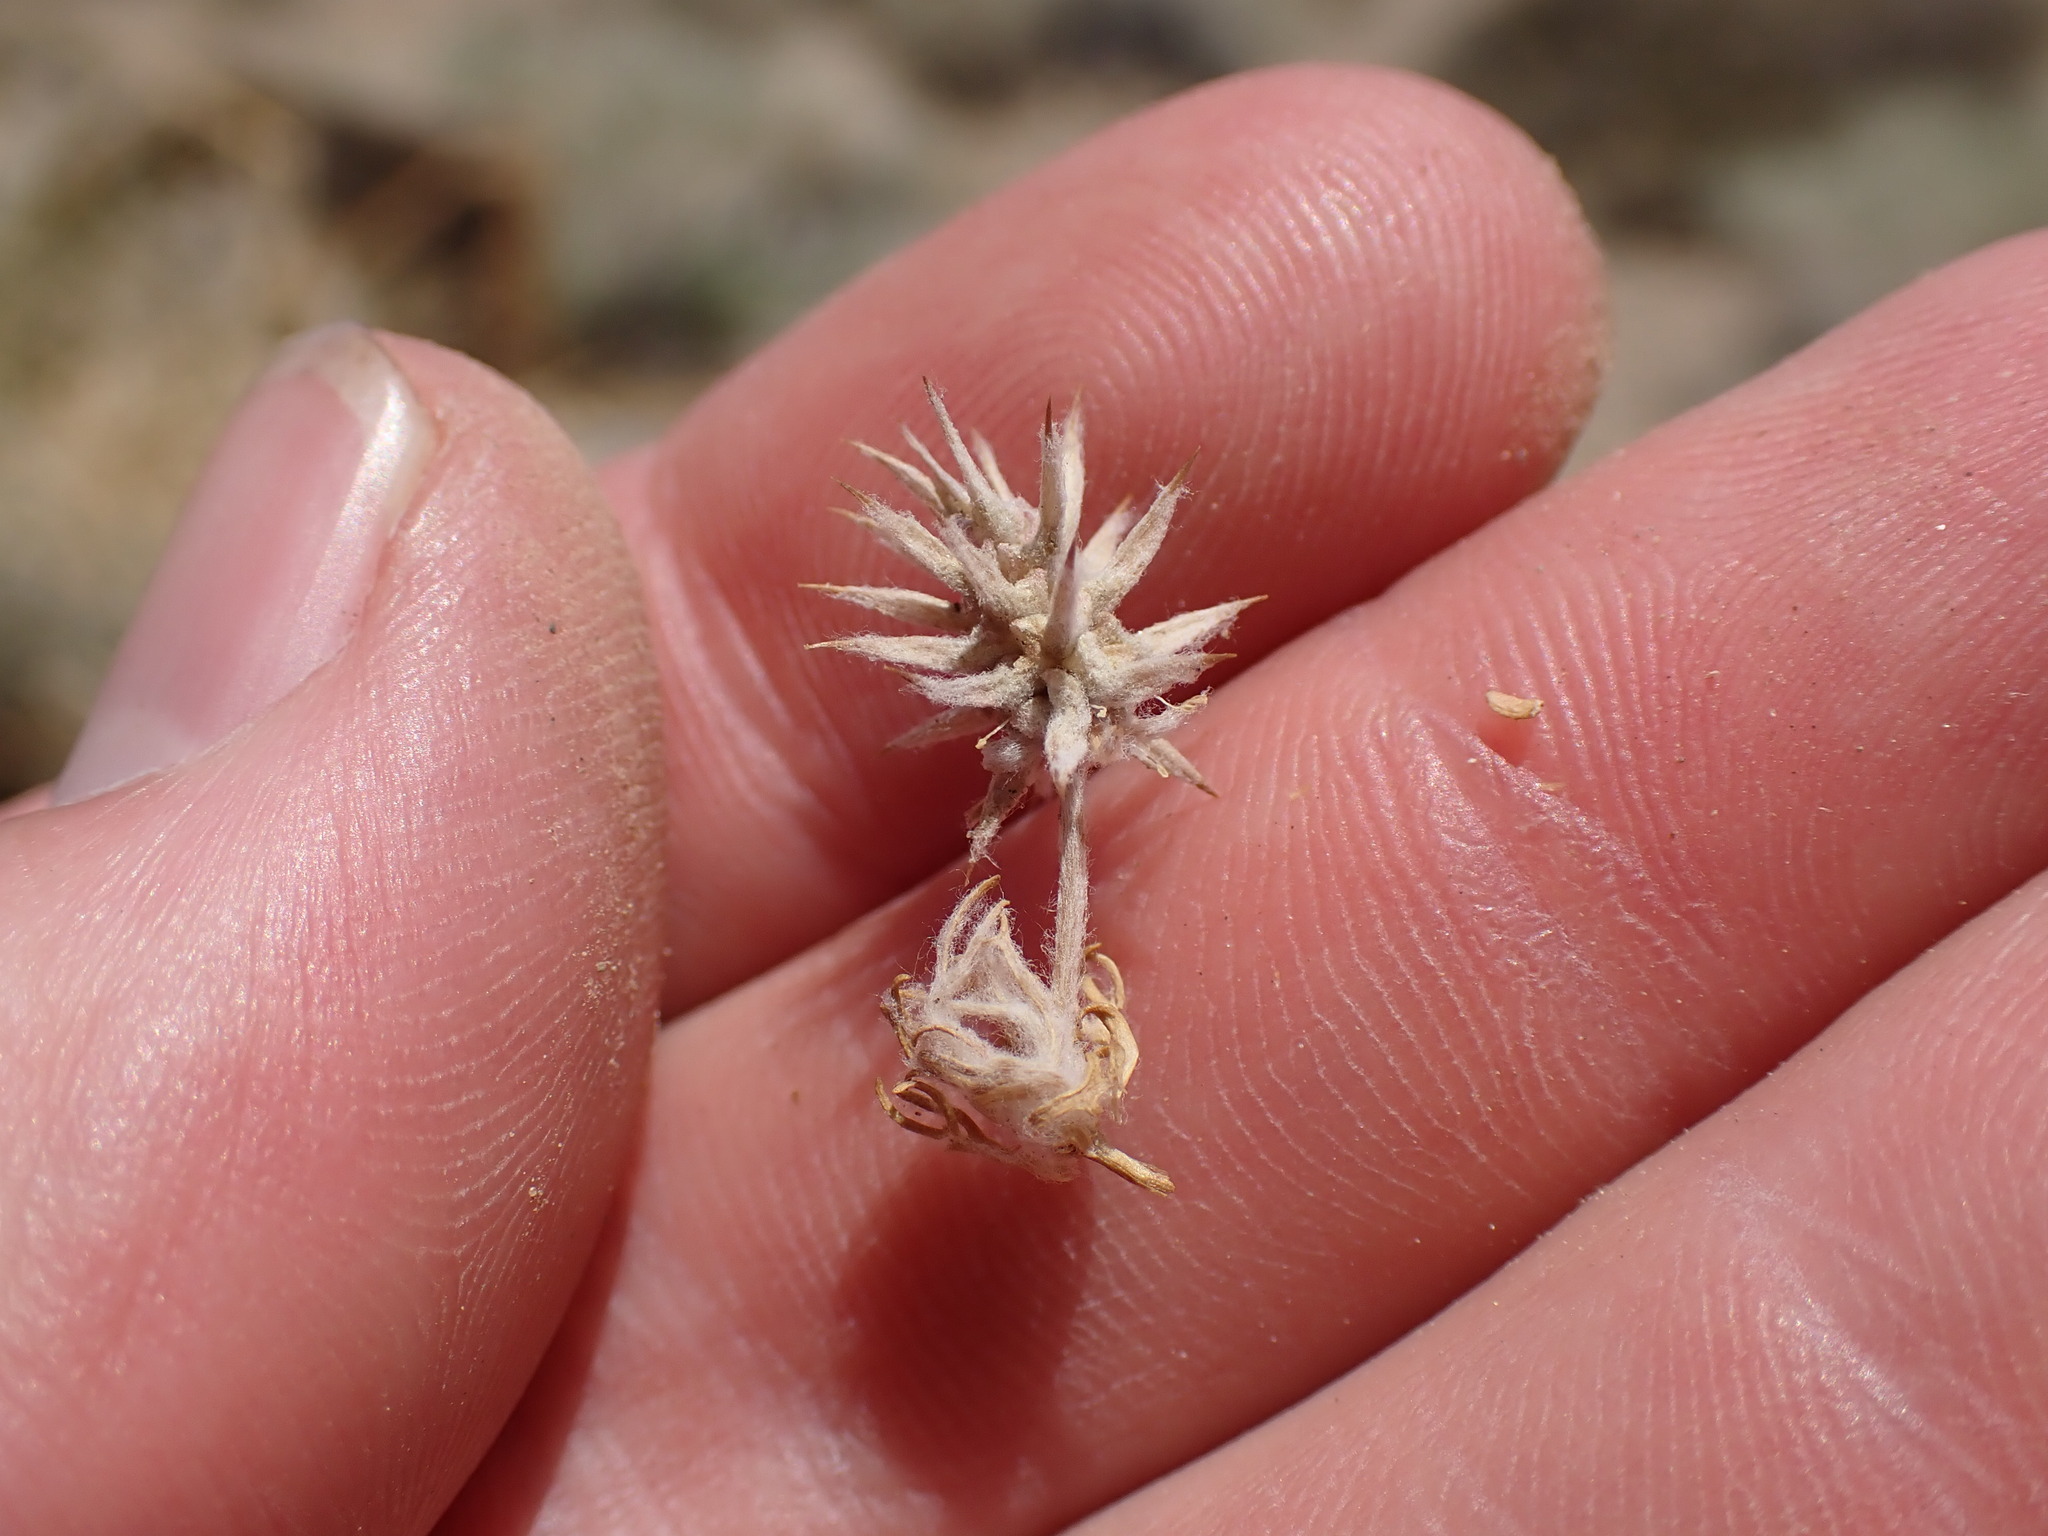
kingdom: Plantae
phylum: Tracheophyta
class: Magnoliopsida
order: Ranunculales
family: Ranunculaceae
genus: Ceratocephala
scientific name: Ceratocephala orthoceras
